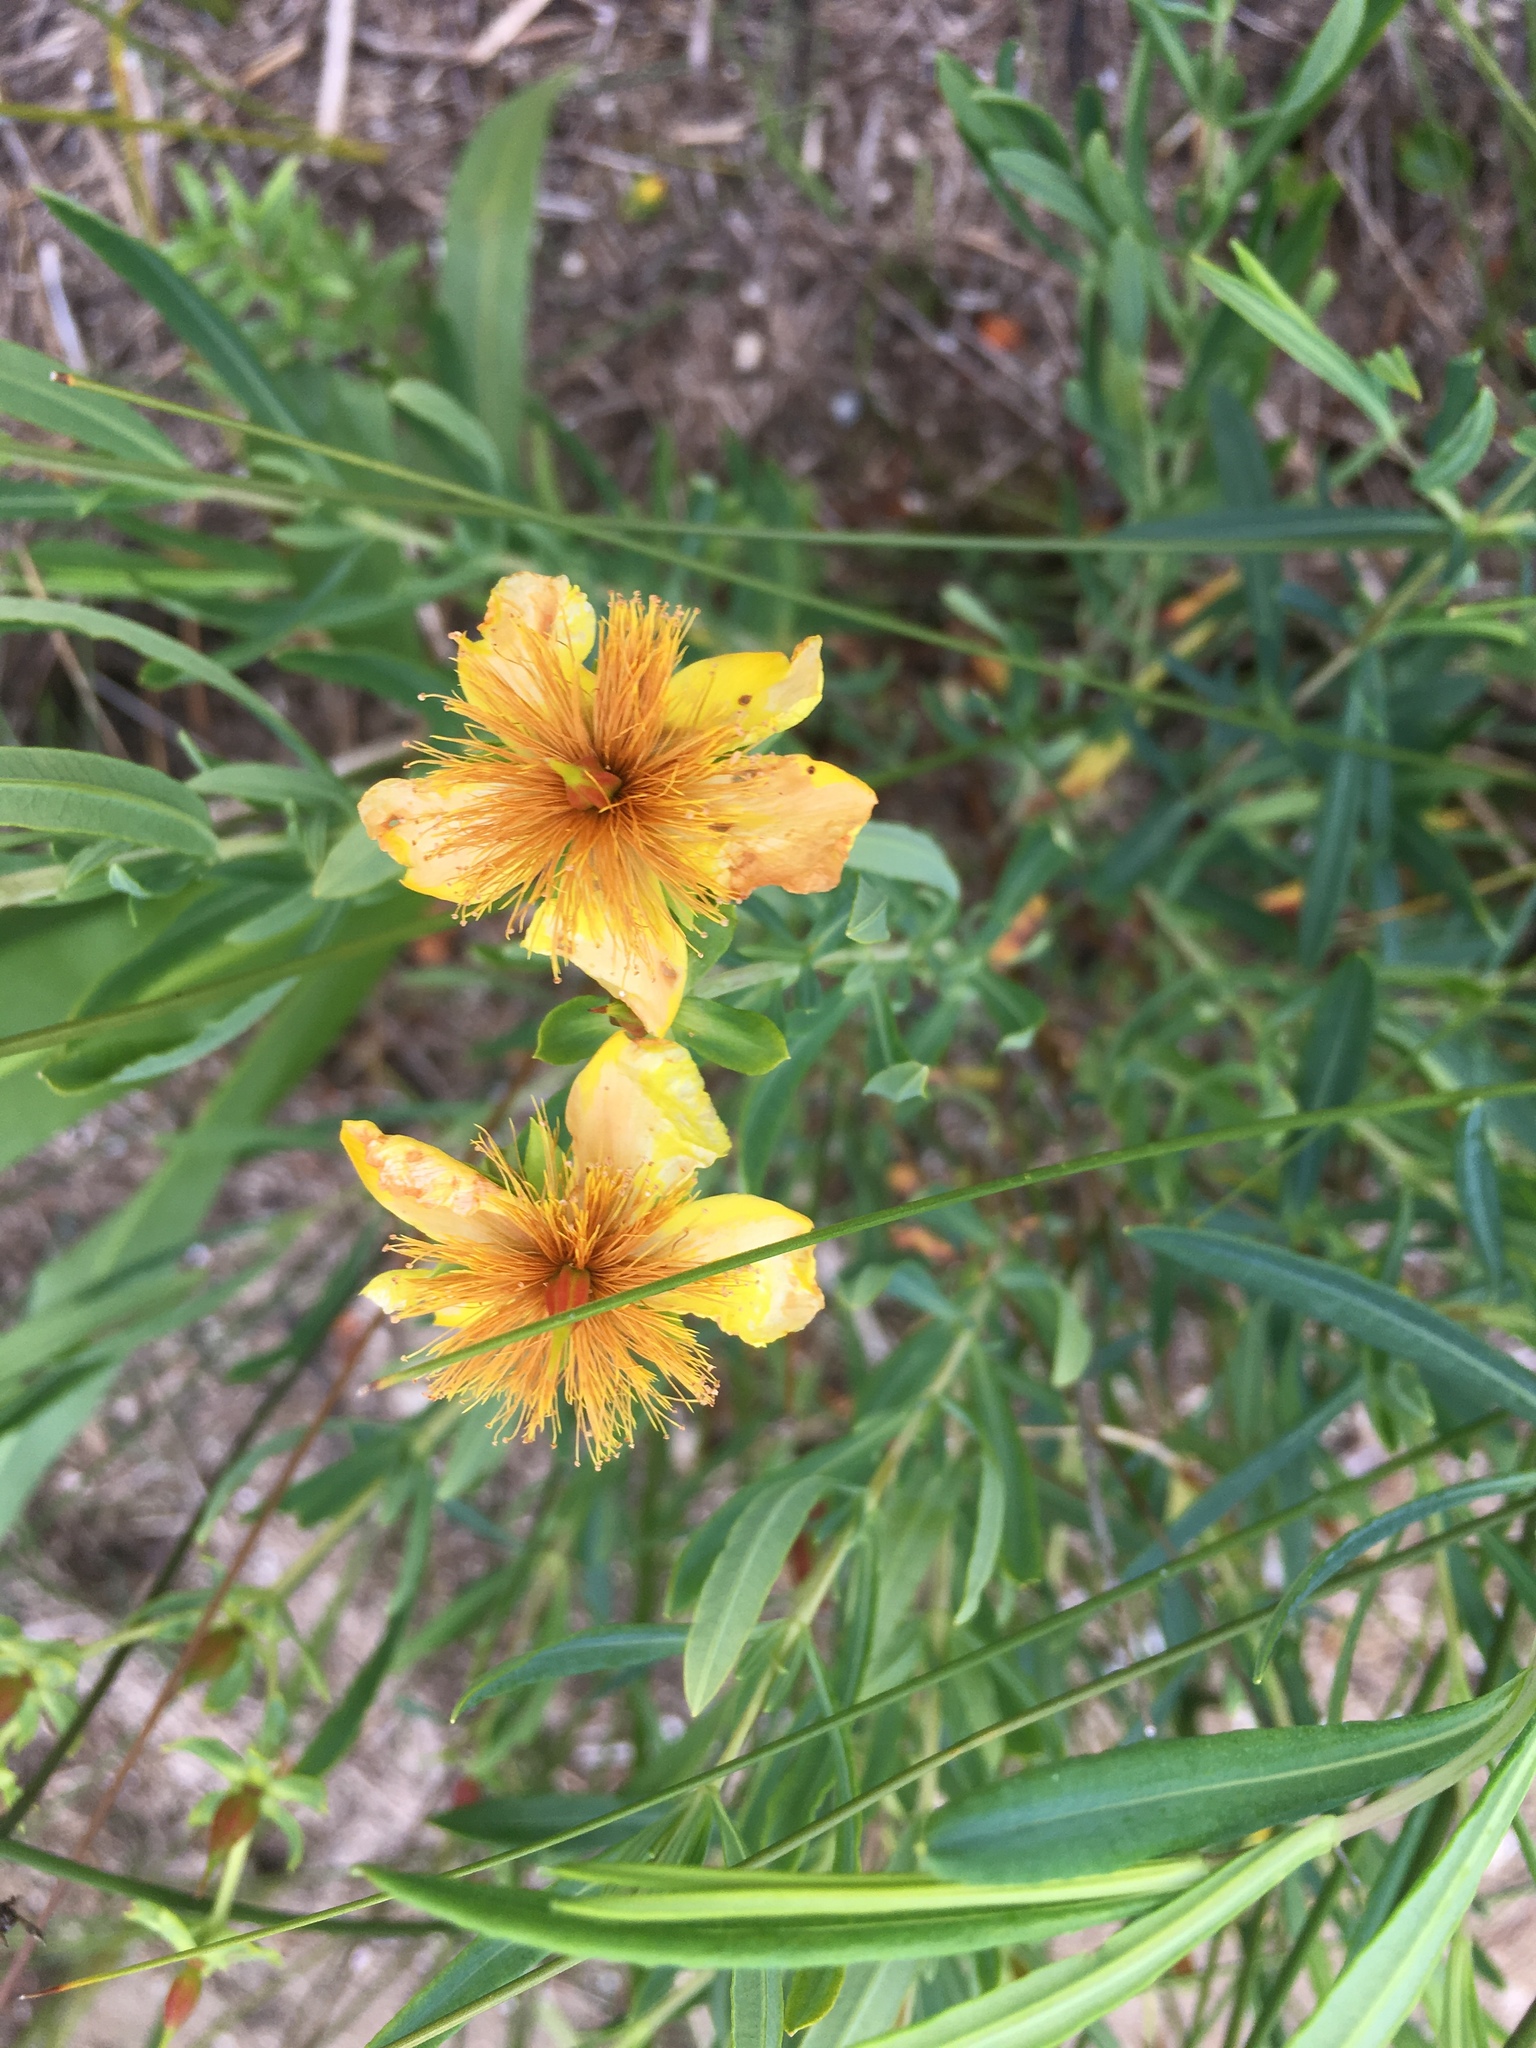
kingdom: Plantae
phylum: Tracheophyta
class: Magnoliopsida
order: Malpighiales
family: Hypericaceae
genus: Hypericum
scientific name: Hypericum kalmianum
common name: Kalm's st. john's-wort
